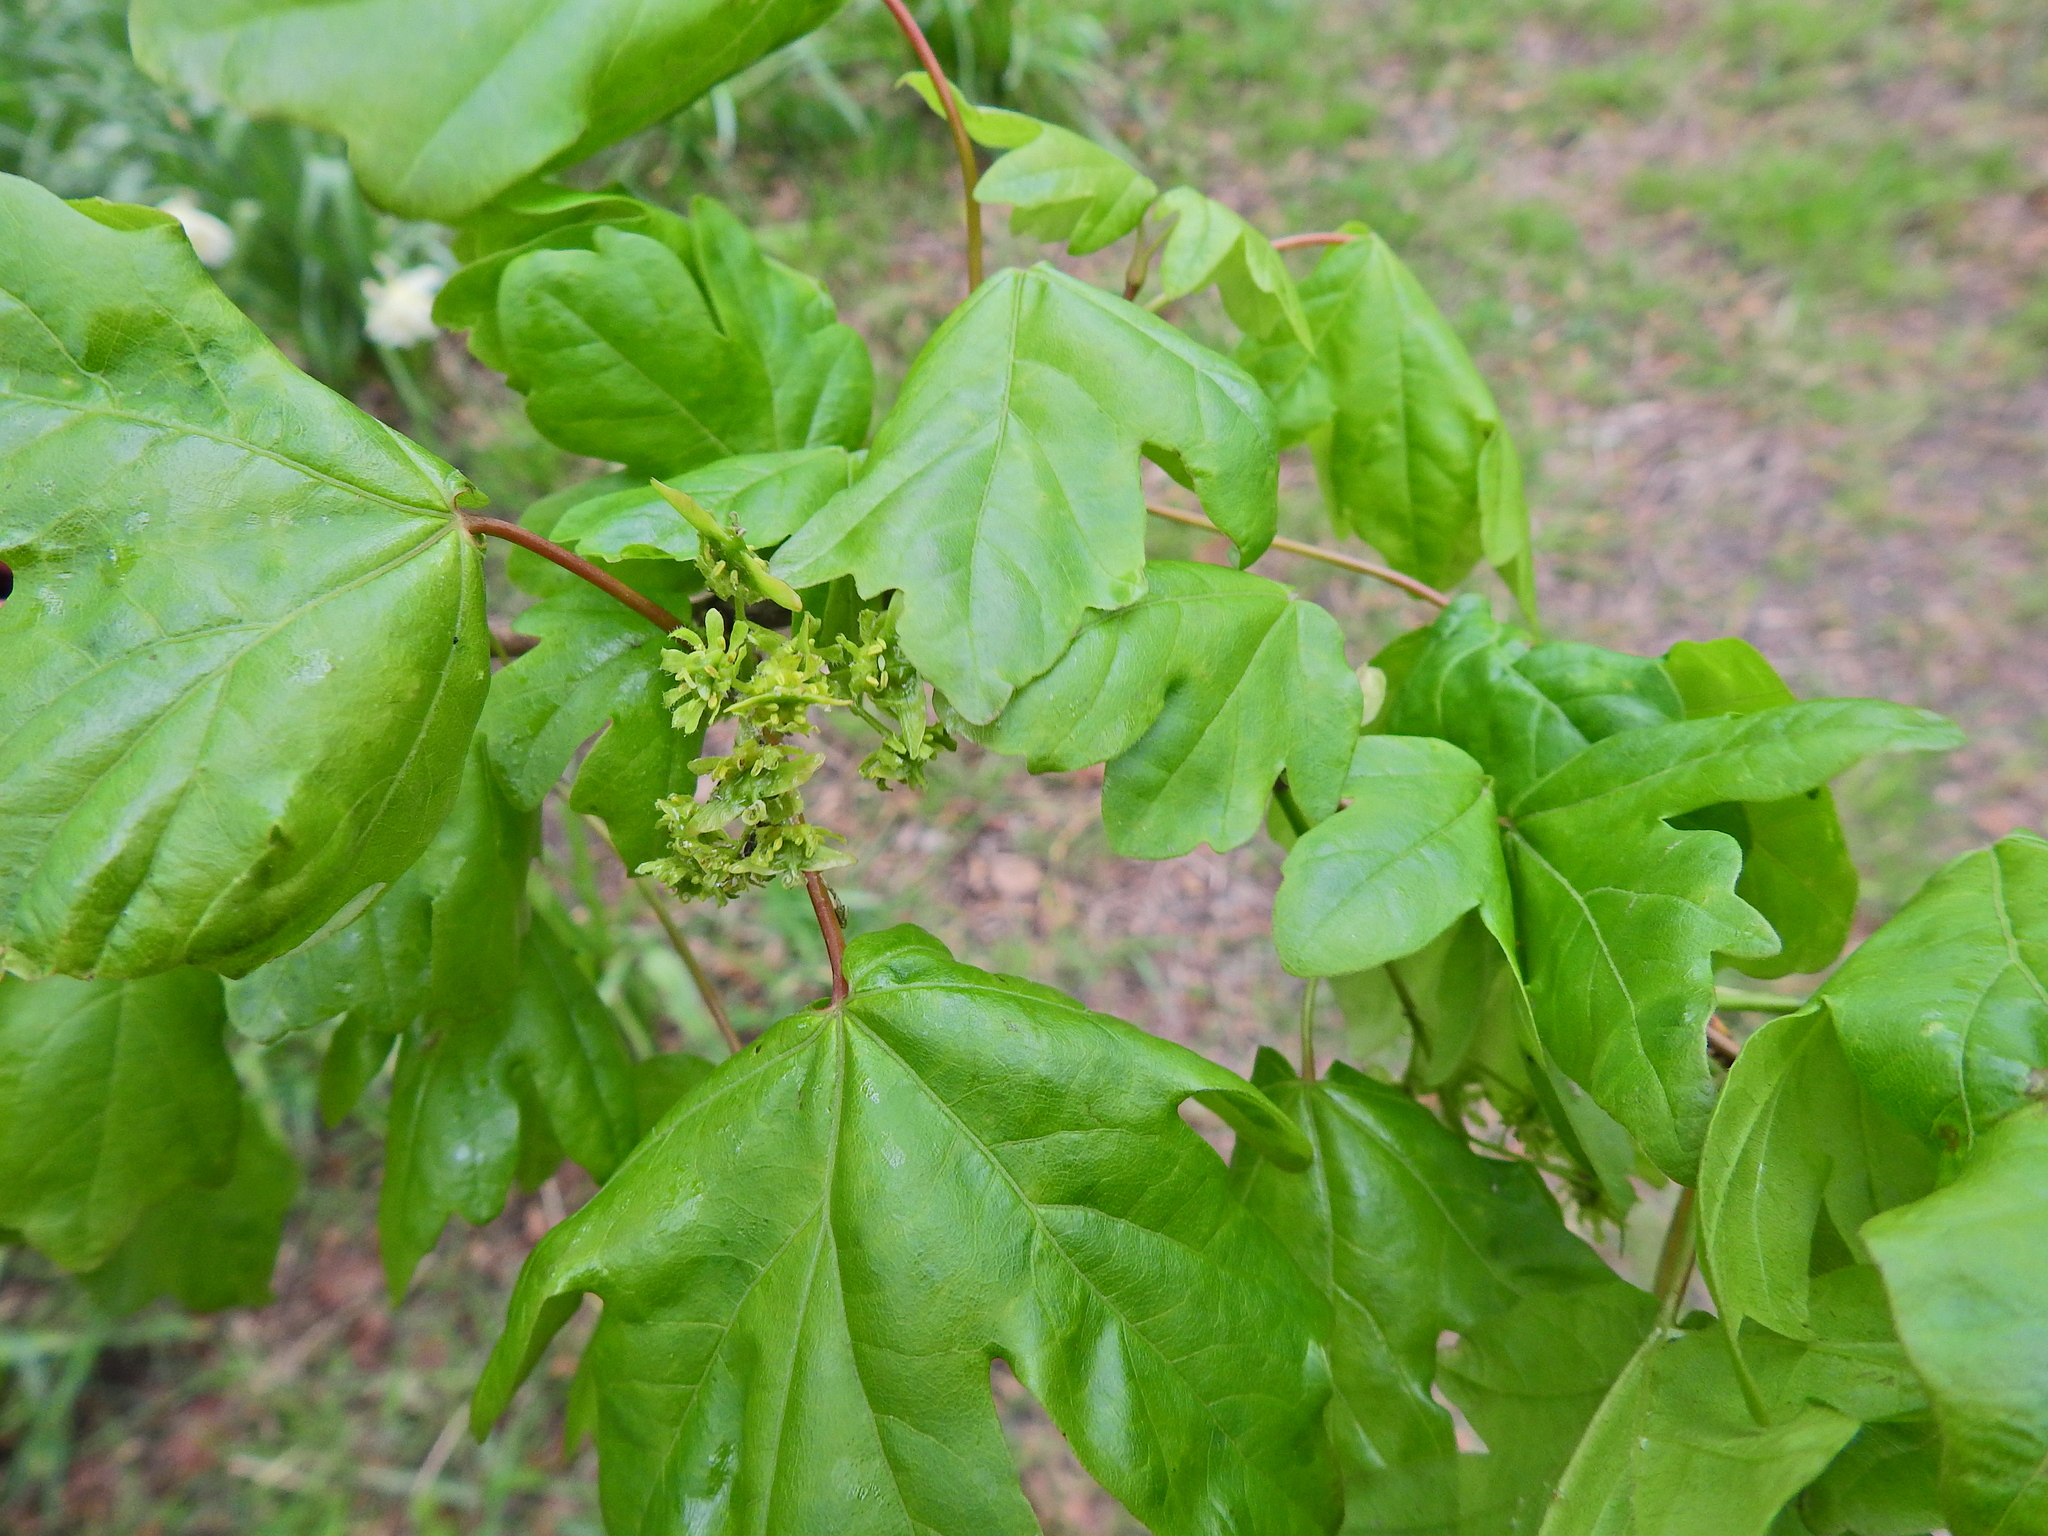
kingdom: Plantae
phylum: Tracheophyta
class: Magnoliopsida
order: Sapindales
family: Sapindaceae
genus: Acer
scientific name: Acer campestre
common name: Field maple
